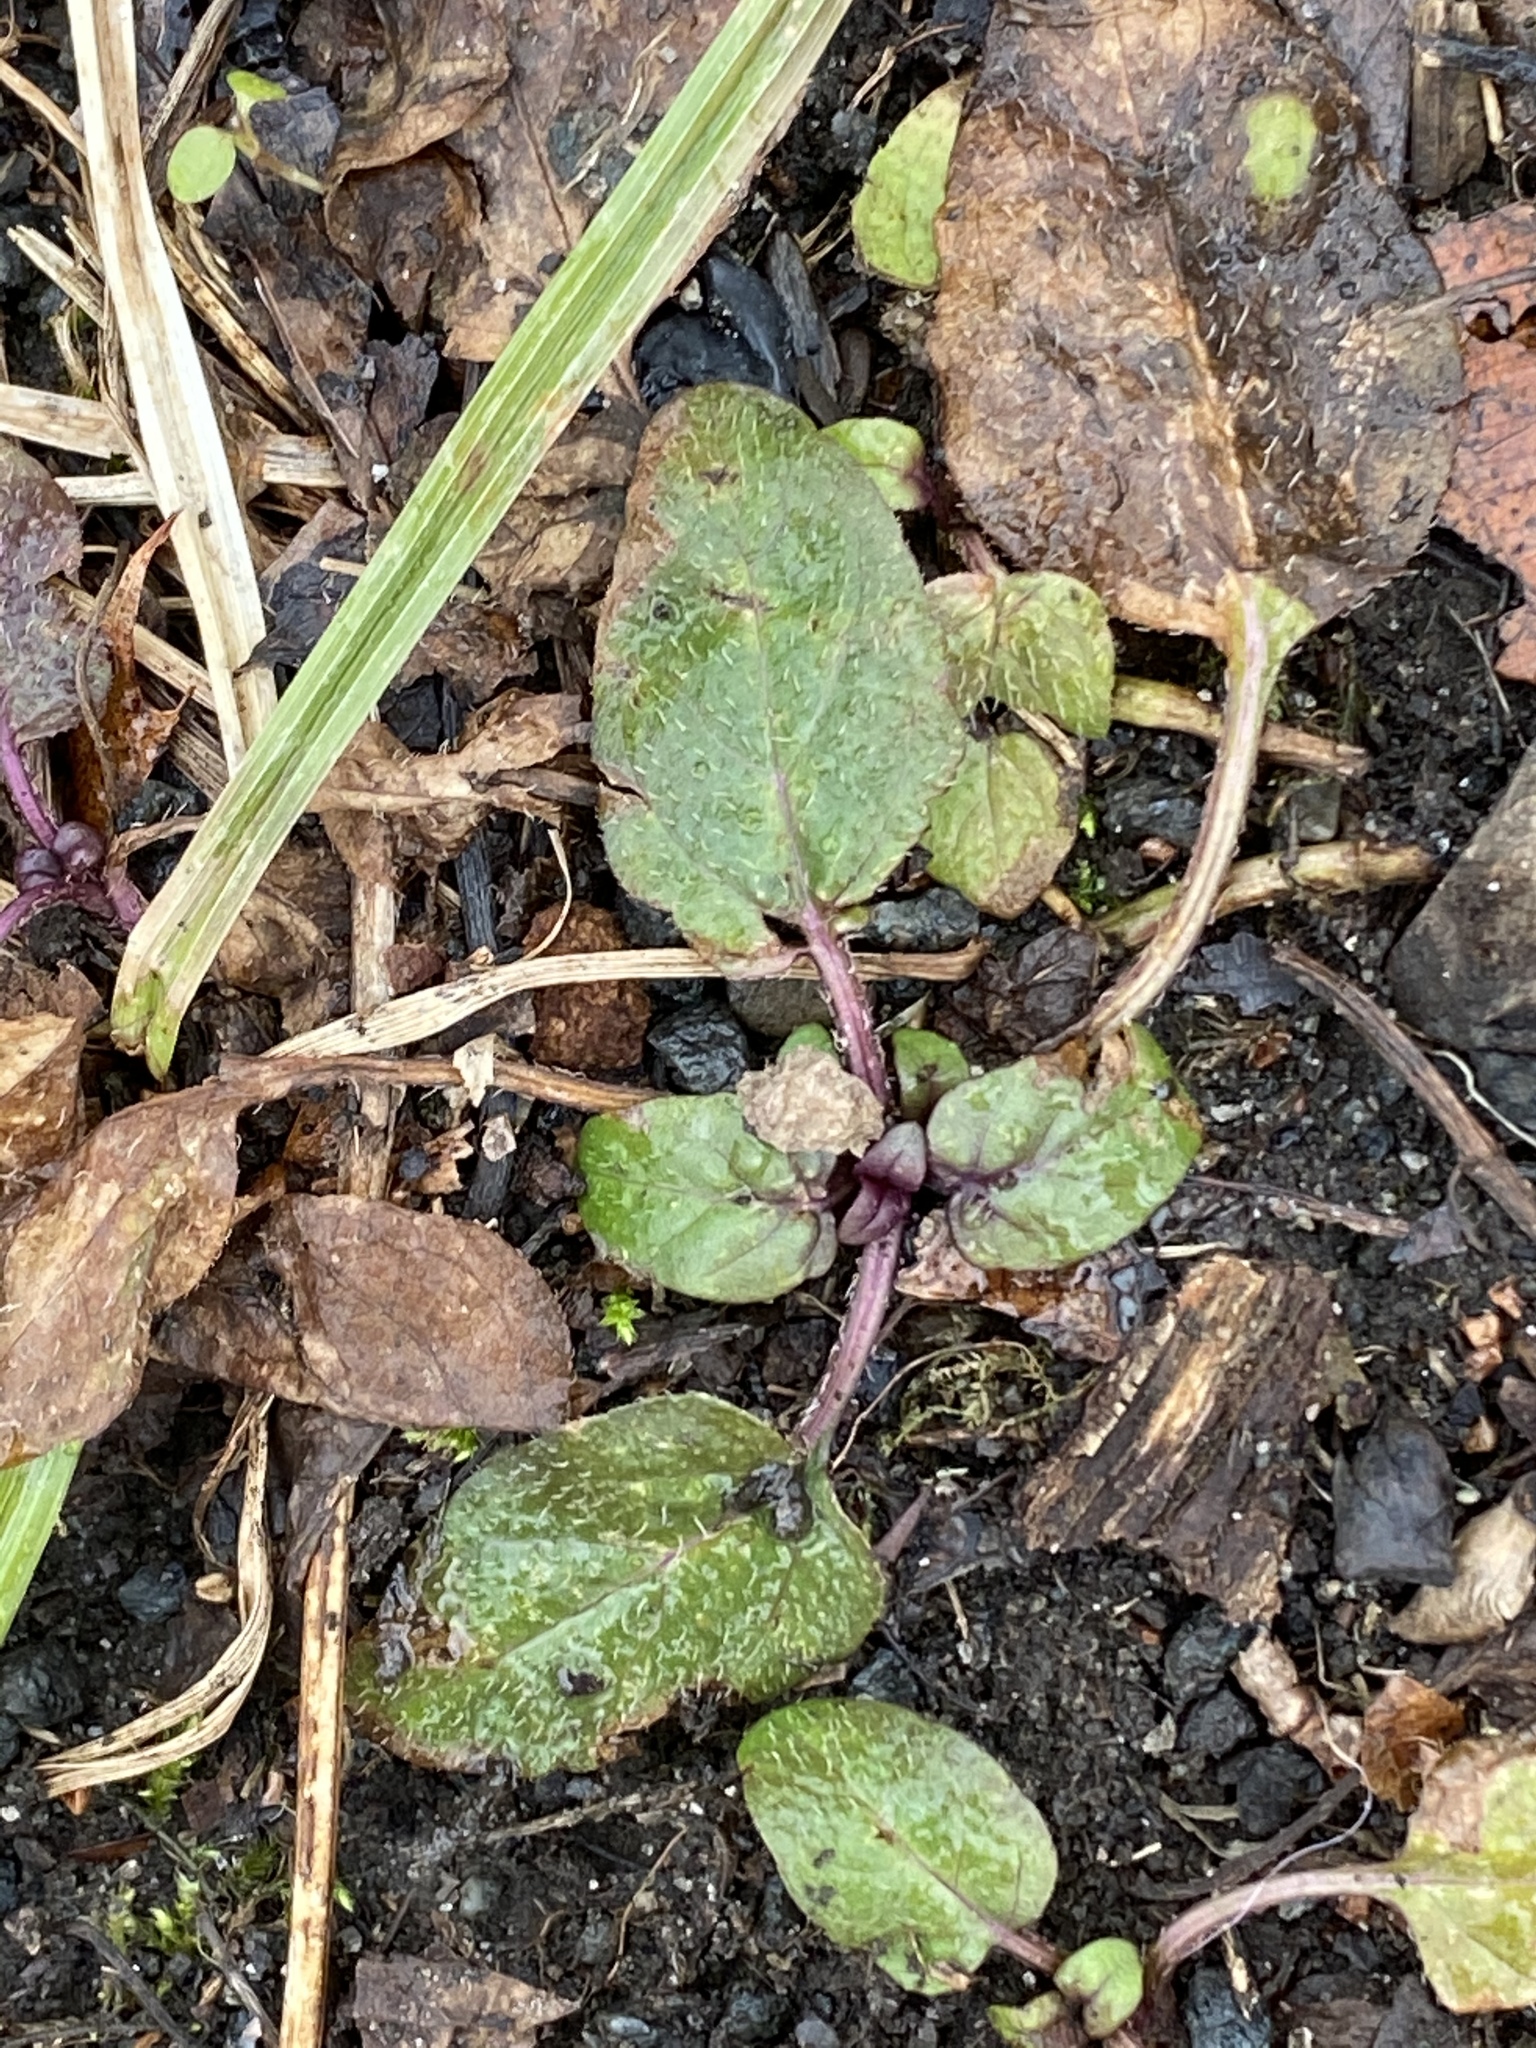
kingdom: Plantae
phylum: Tracheophyta
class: Magnoliopsida
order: Lamiales
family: Lamiaceae
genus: Prunella
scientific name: Prunella vulgaris
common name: Heal-all
